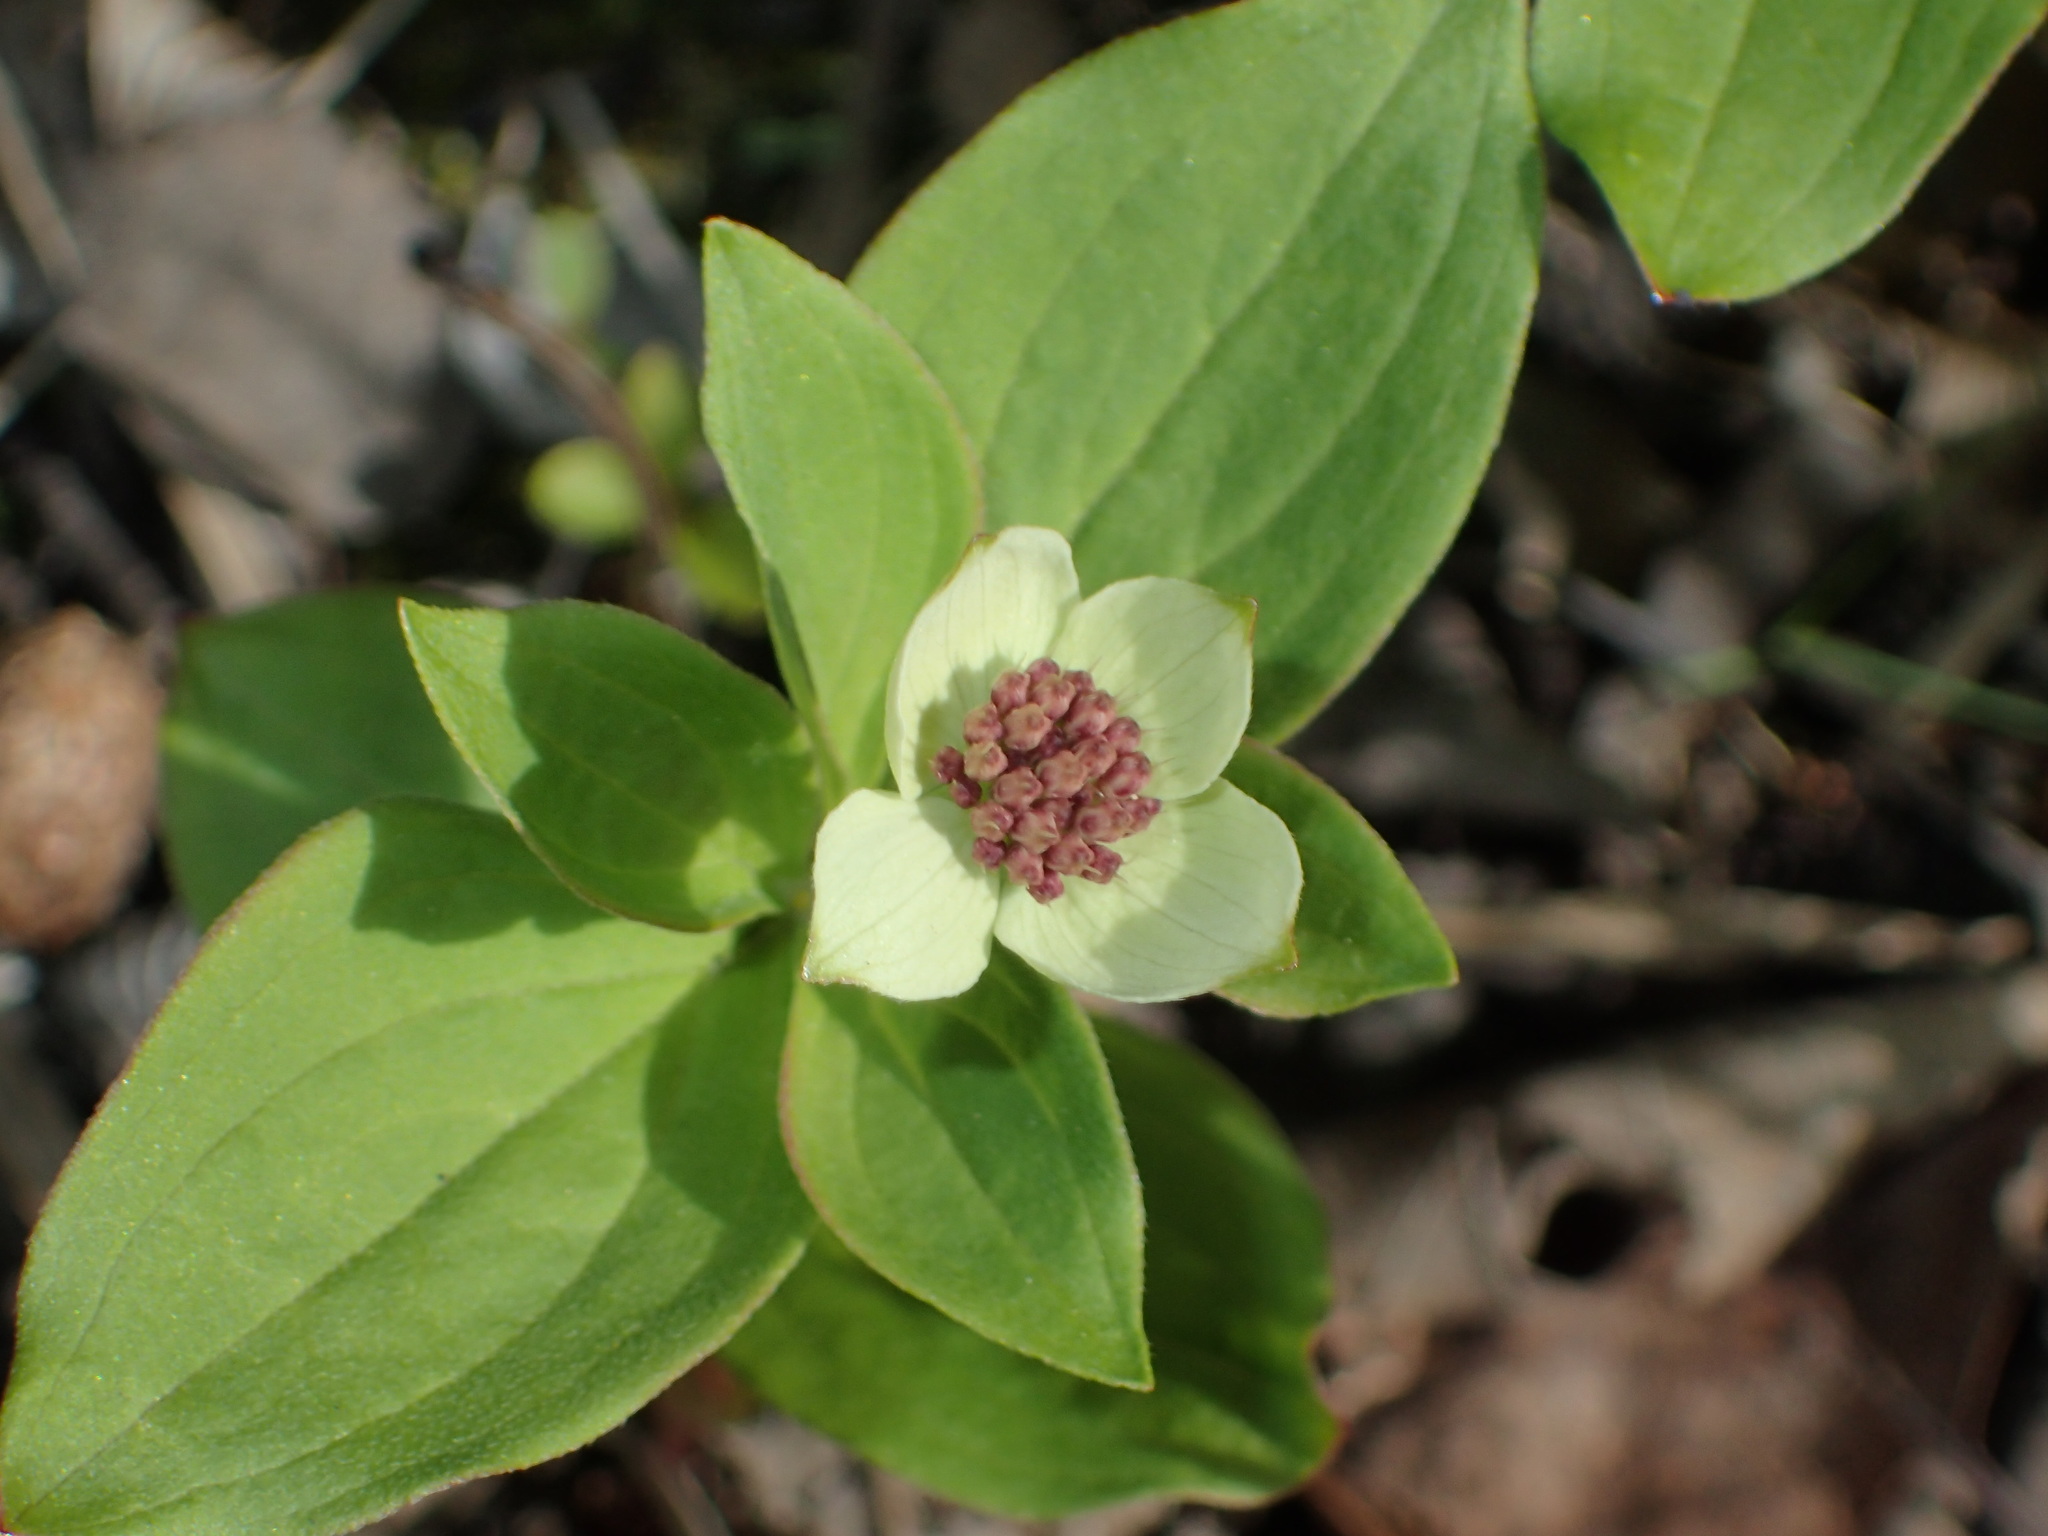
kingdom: Plantae
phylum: Tracheophyta
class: Magnoliopsida
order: Cornales
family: Cornaceae
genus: Cornus
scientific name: Cornus unalaschkensis
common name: Alaska bunchberry
